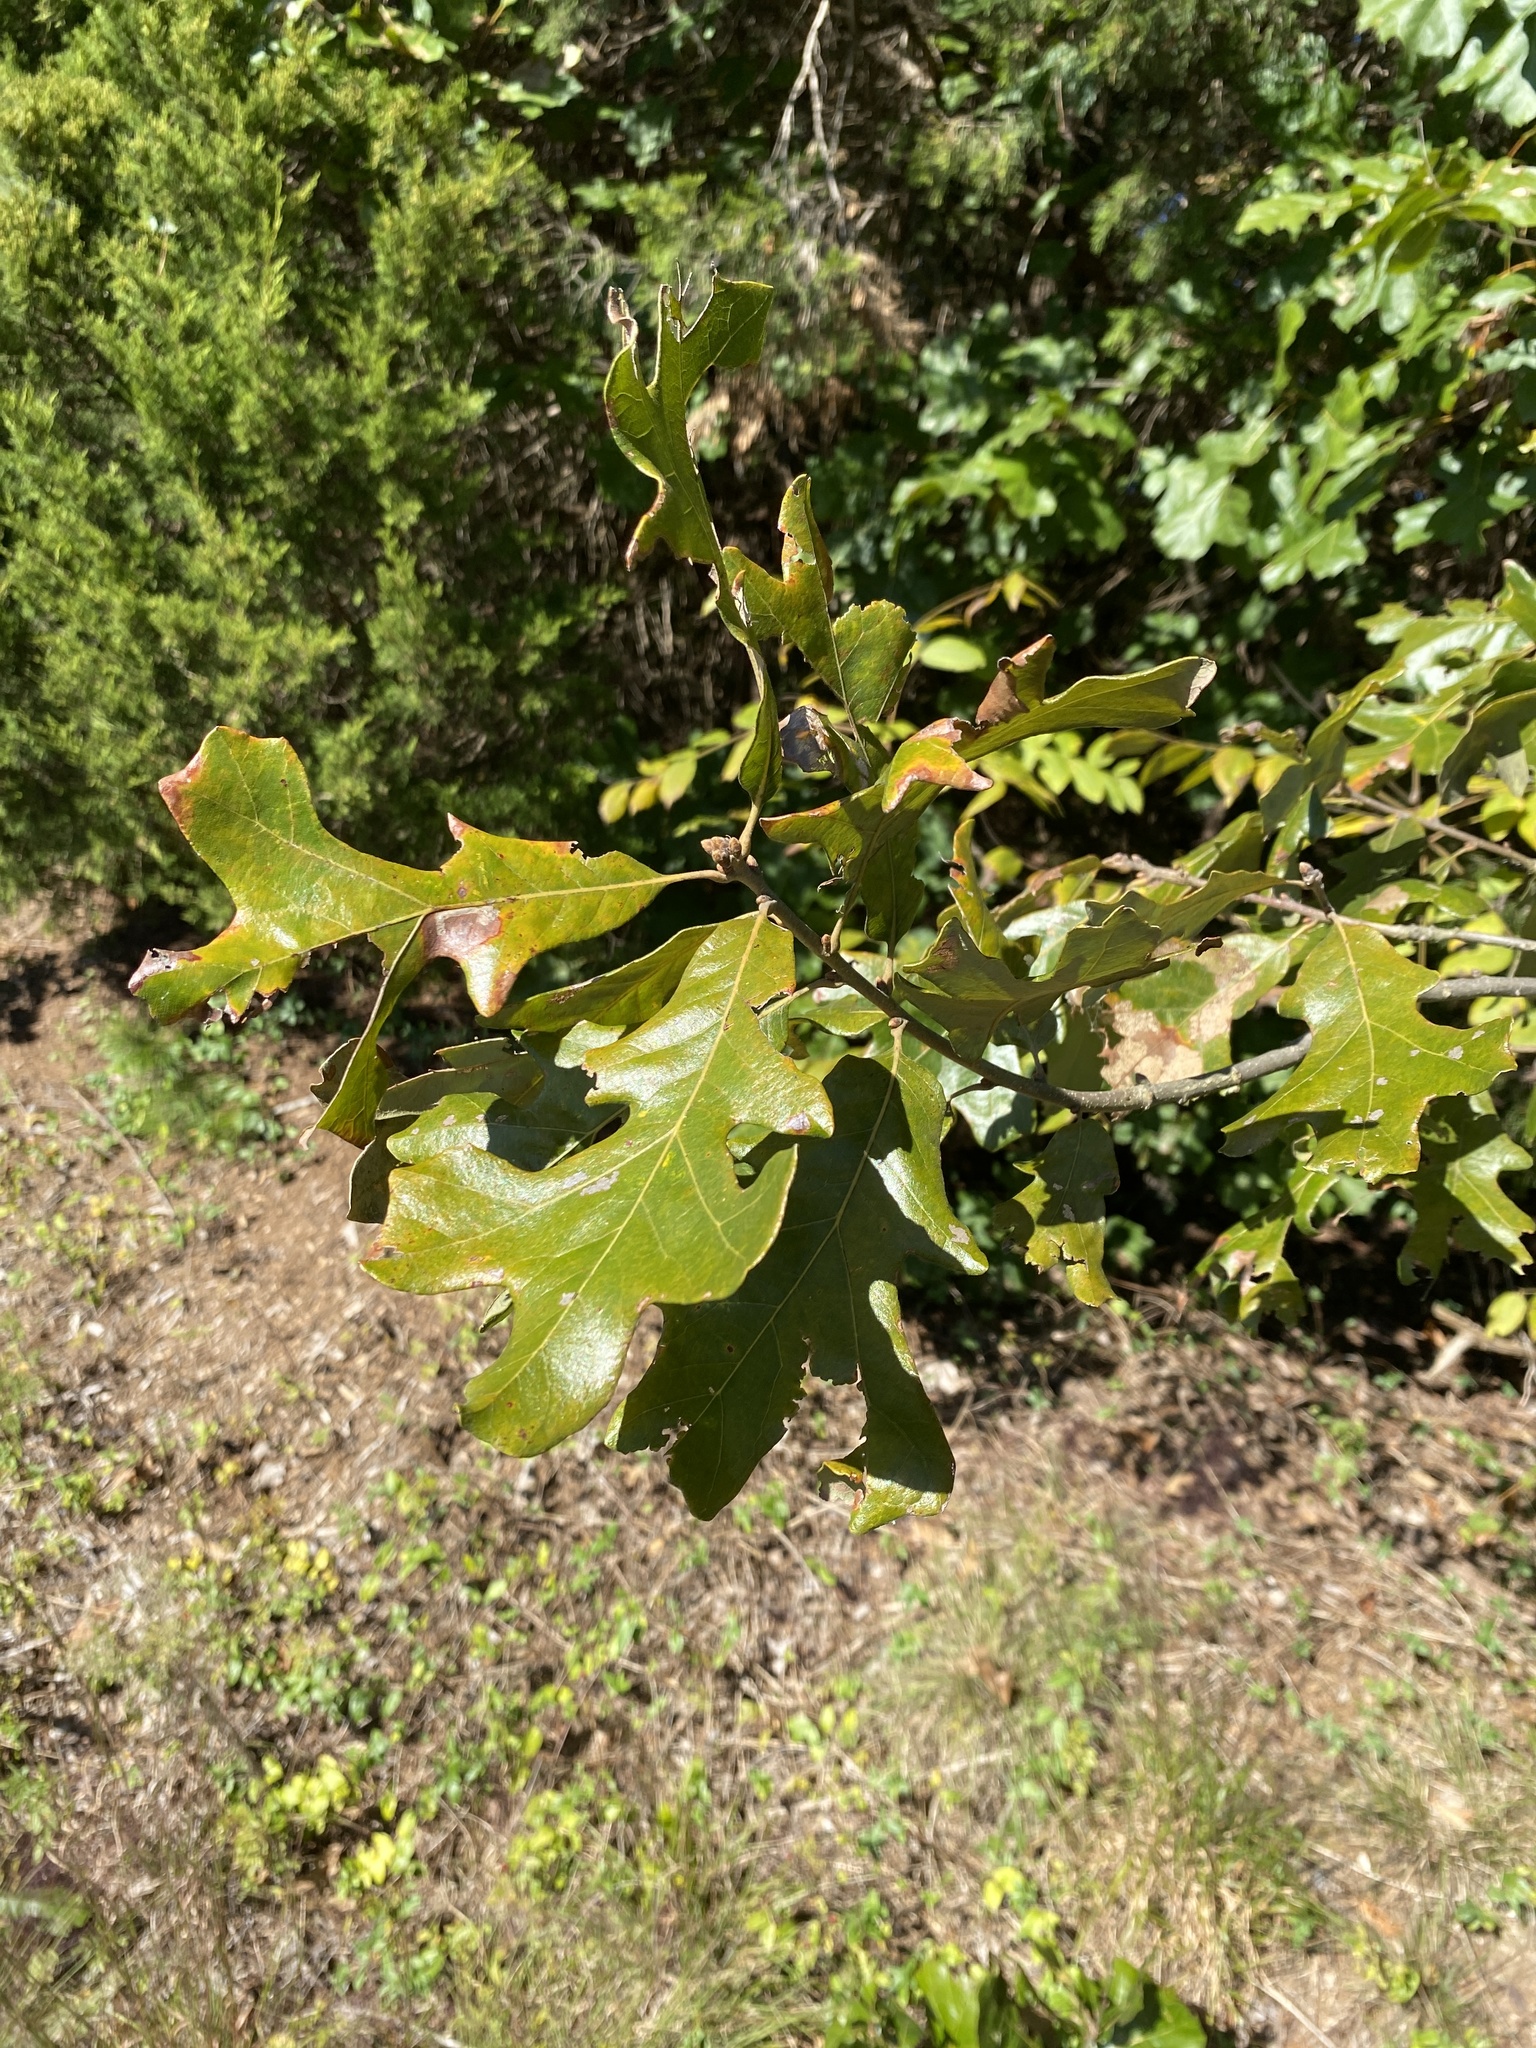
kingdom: Plantae
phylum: Tracheophyta
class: Magnoliopsida
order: Fagales
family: Fagaceae
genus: Quercus
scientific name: Quercus stellata
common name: Post oak
